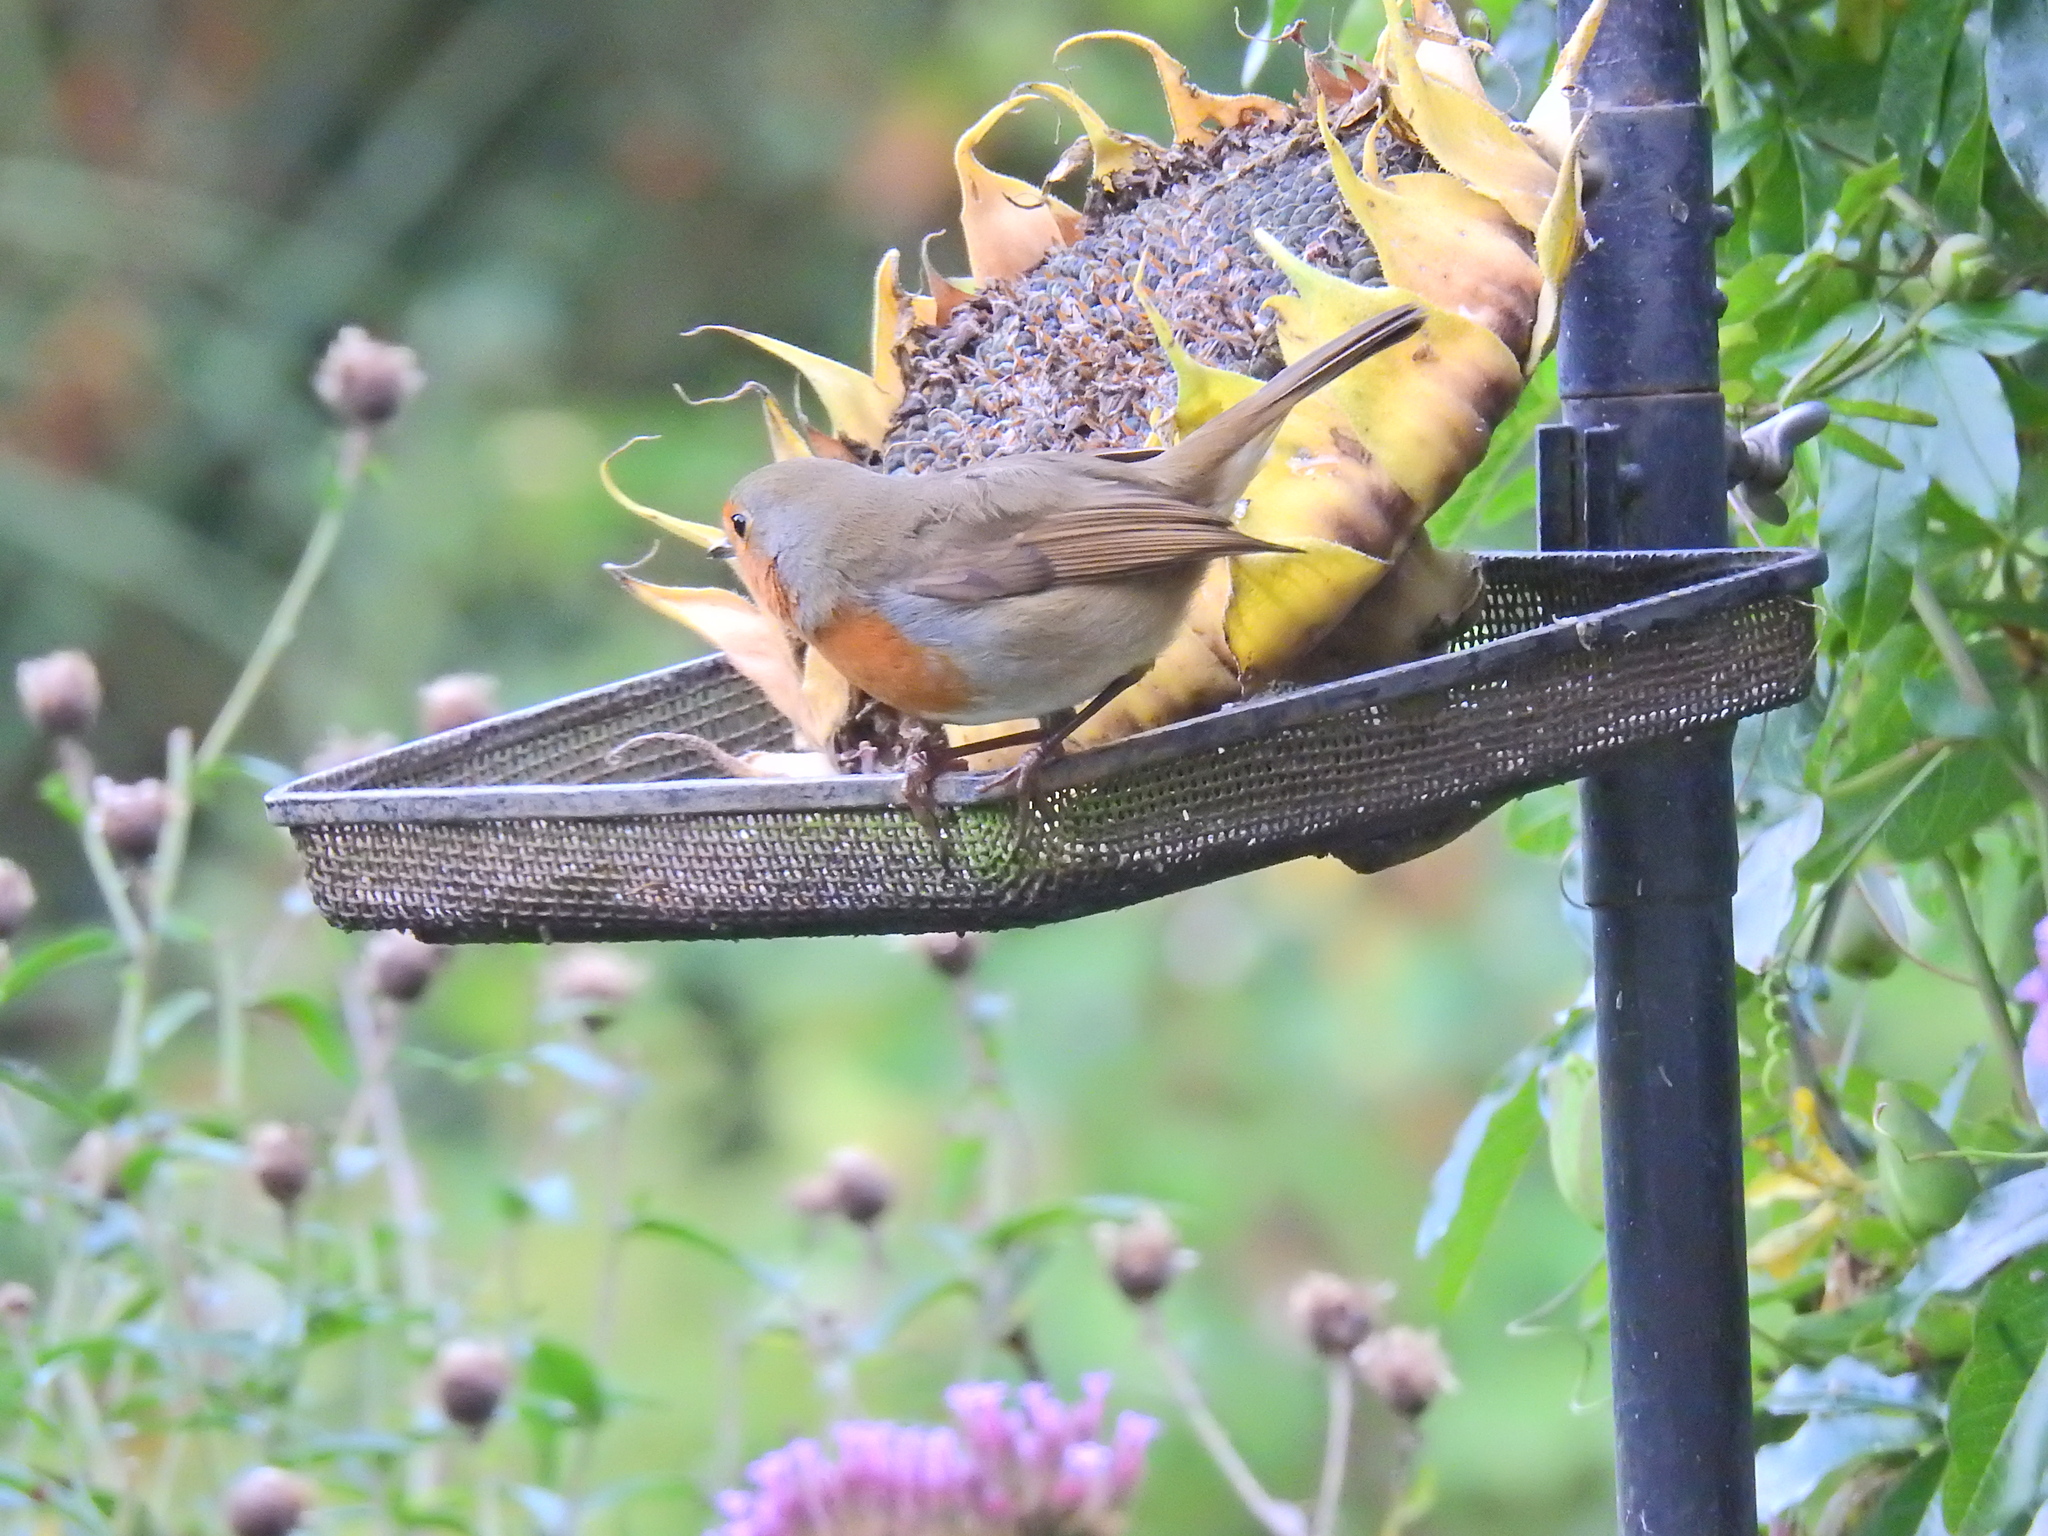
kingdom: Animalia
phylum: Chordata
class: Aves
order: Passeriformes
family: Muscicapidae
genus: Erithacus
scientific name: Erithacus rubecula
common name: European robin
